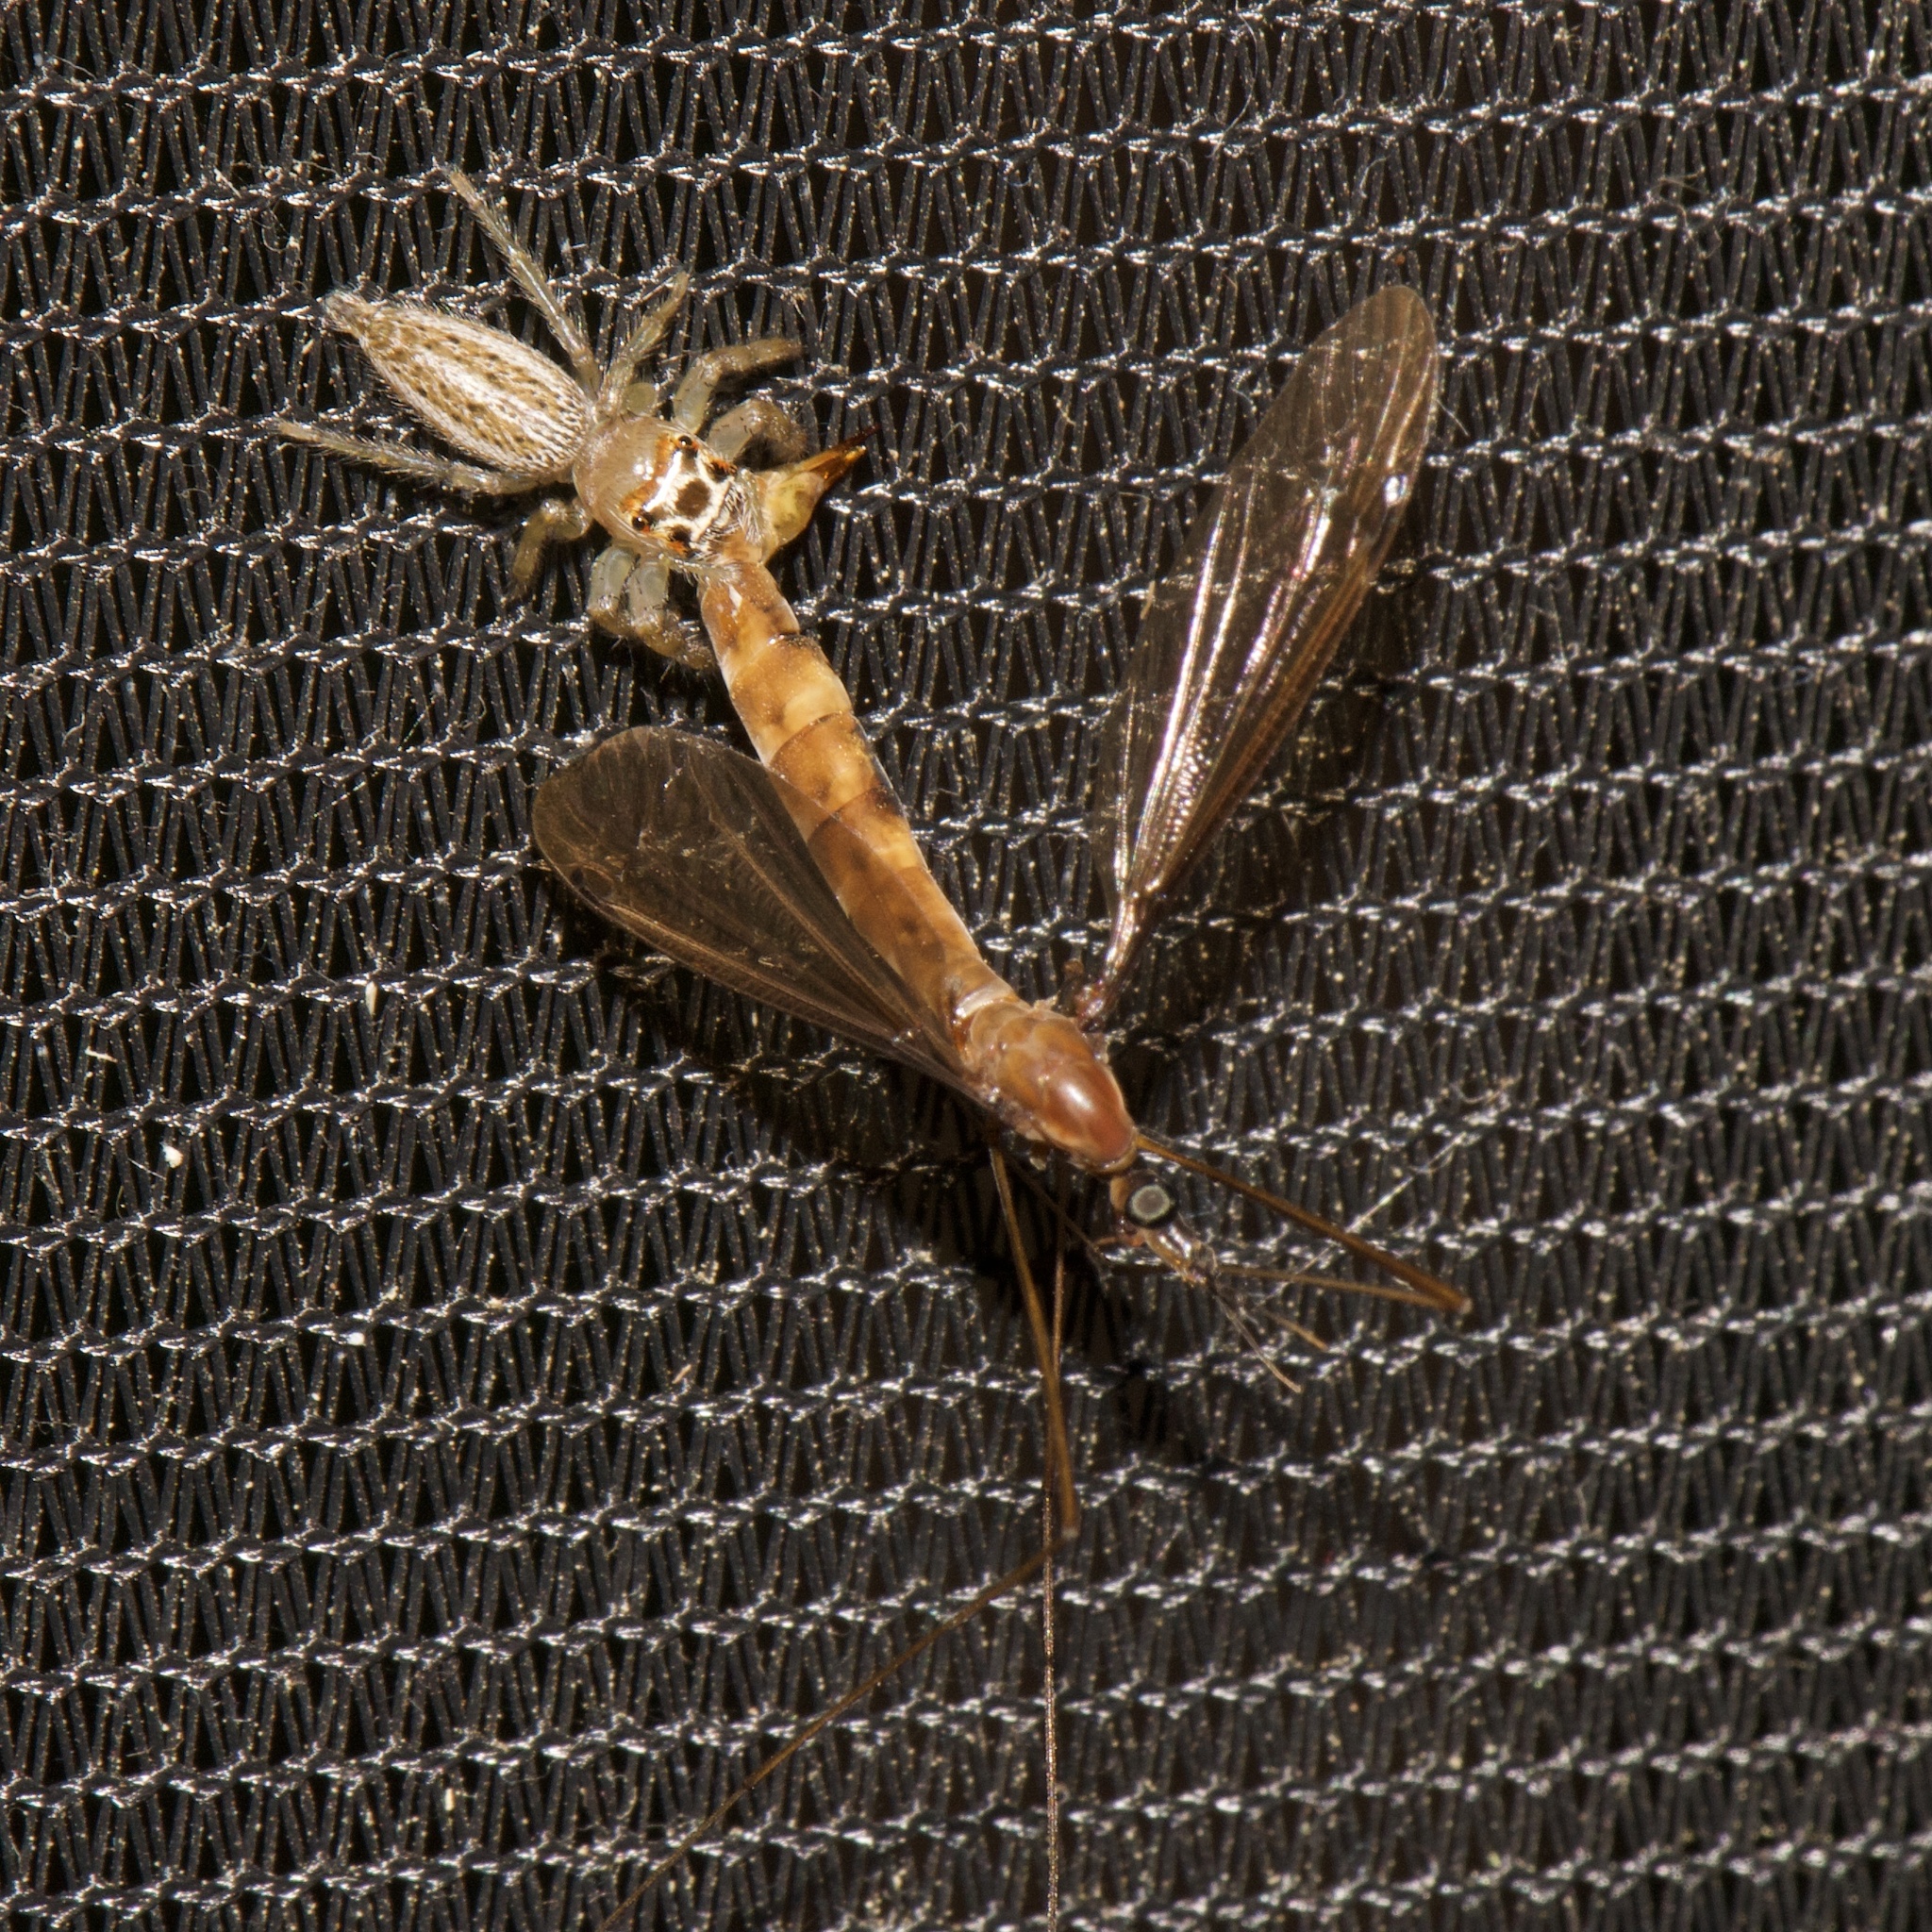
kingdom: Animalia
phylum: Arthropoda
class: Arachnida
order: Araneae
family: Salticidae
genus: Colonus
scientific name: Colonus sylvanus
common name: Jumping spiders
